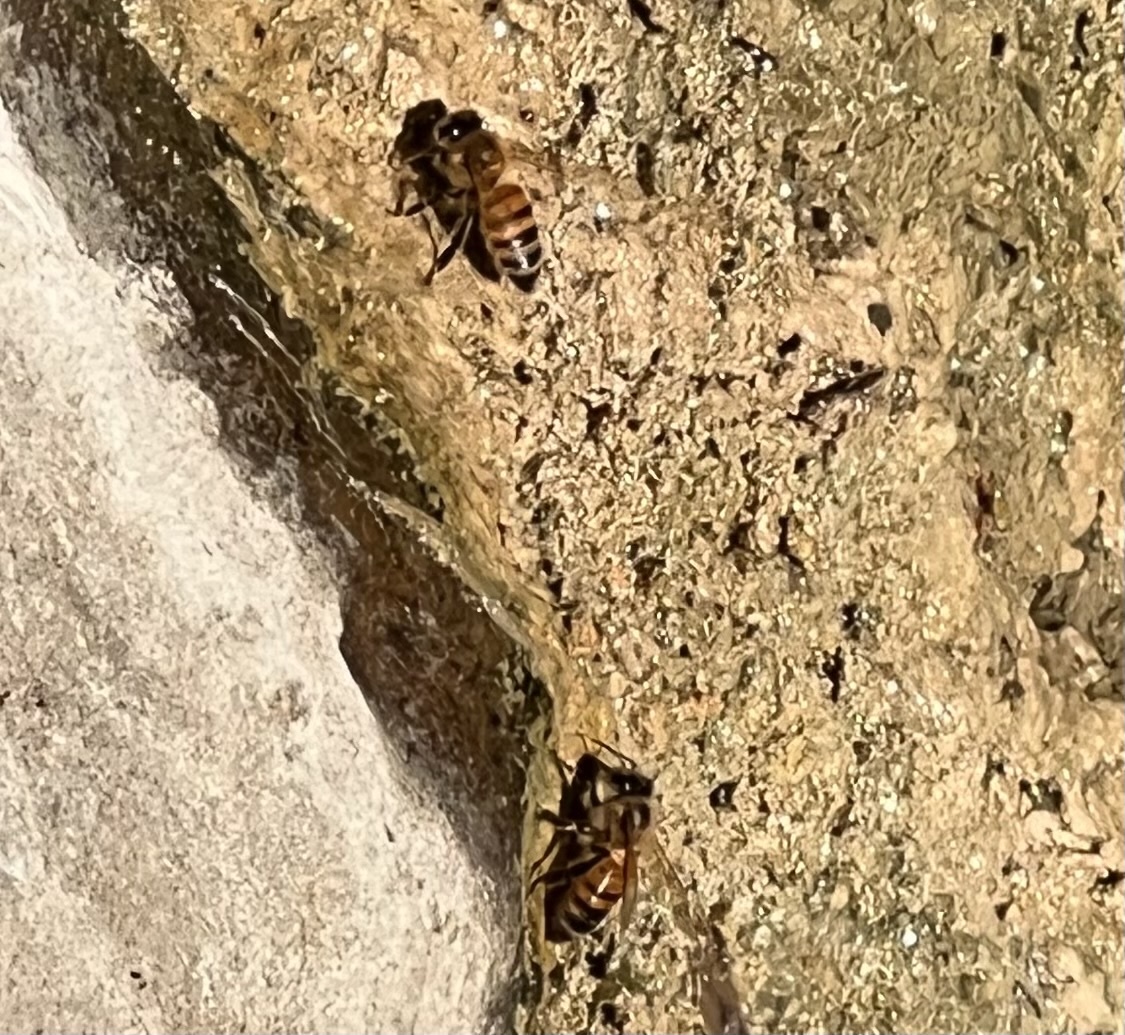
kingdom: Animalia
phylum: Arthropoda
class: Insecta
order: Hymenoptera
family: Apidae
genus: Apis
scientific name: Apis mellifera
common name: Honey bee
